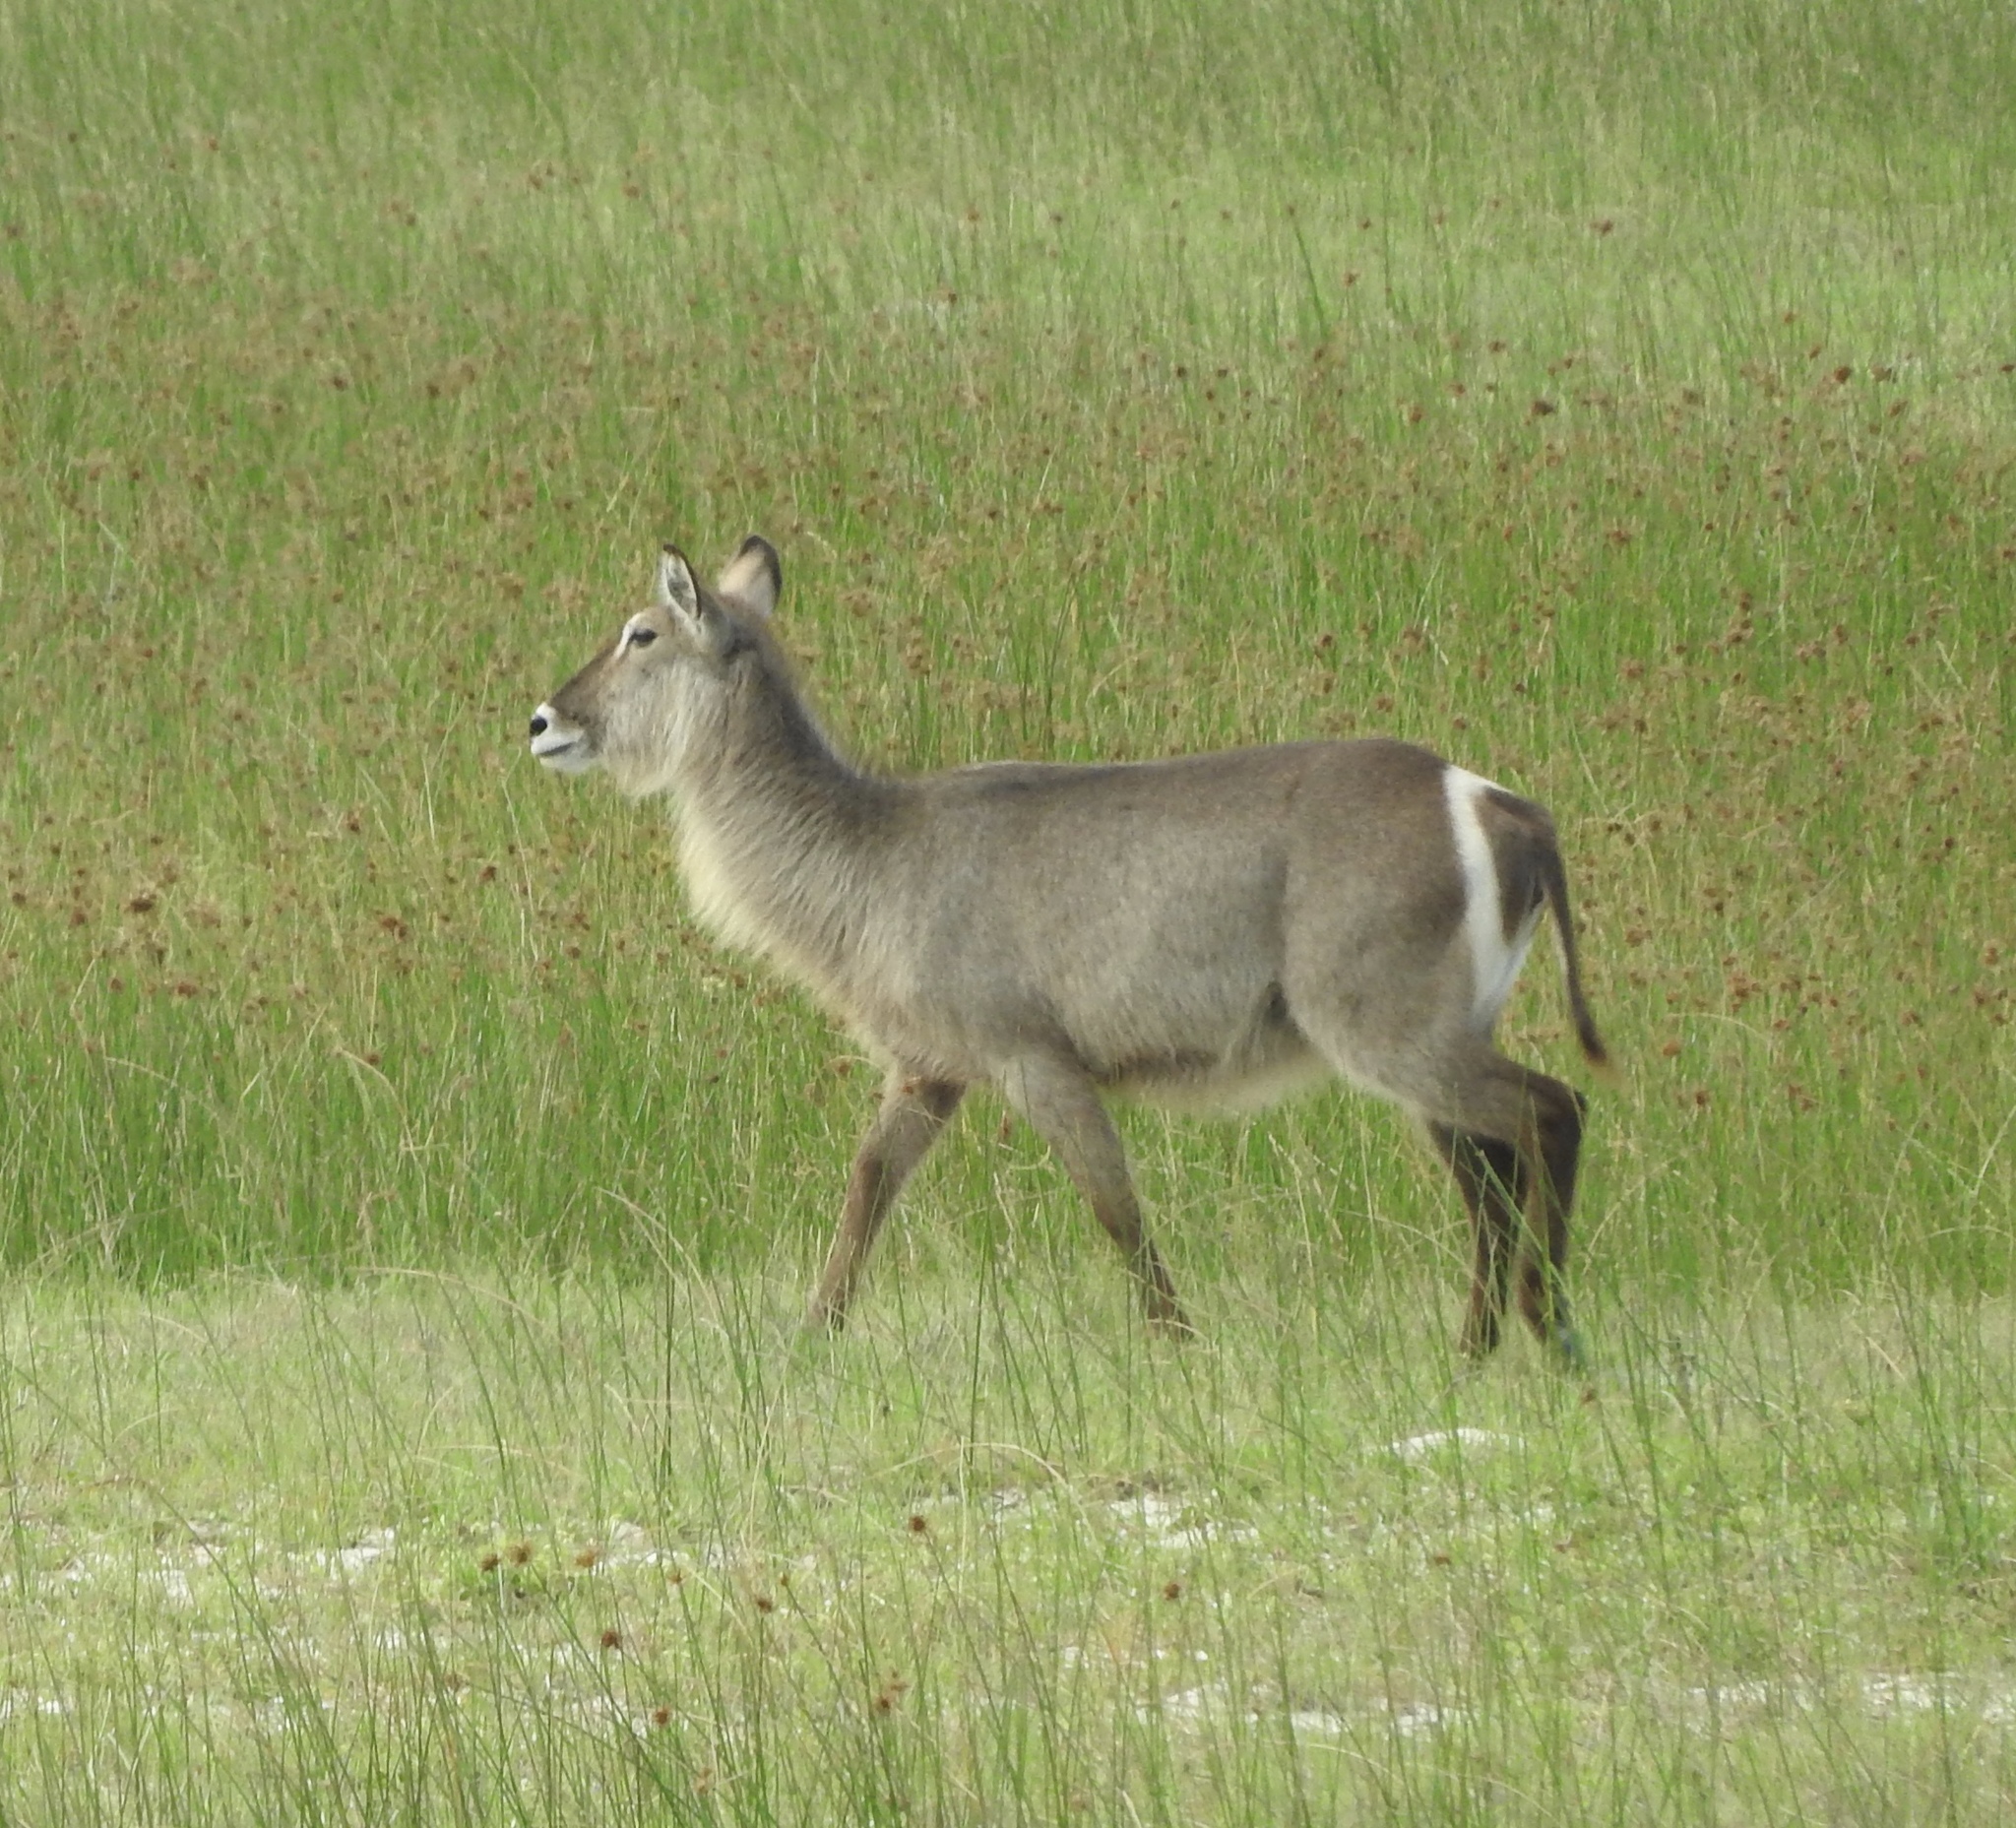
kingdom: Animalia
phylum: Chordata
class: Mammalia
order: Artiodactyla
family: Bovidae
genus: Kobus
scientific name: Kobus ellipsiprymnus
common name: Waterbuck
